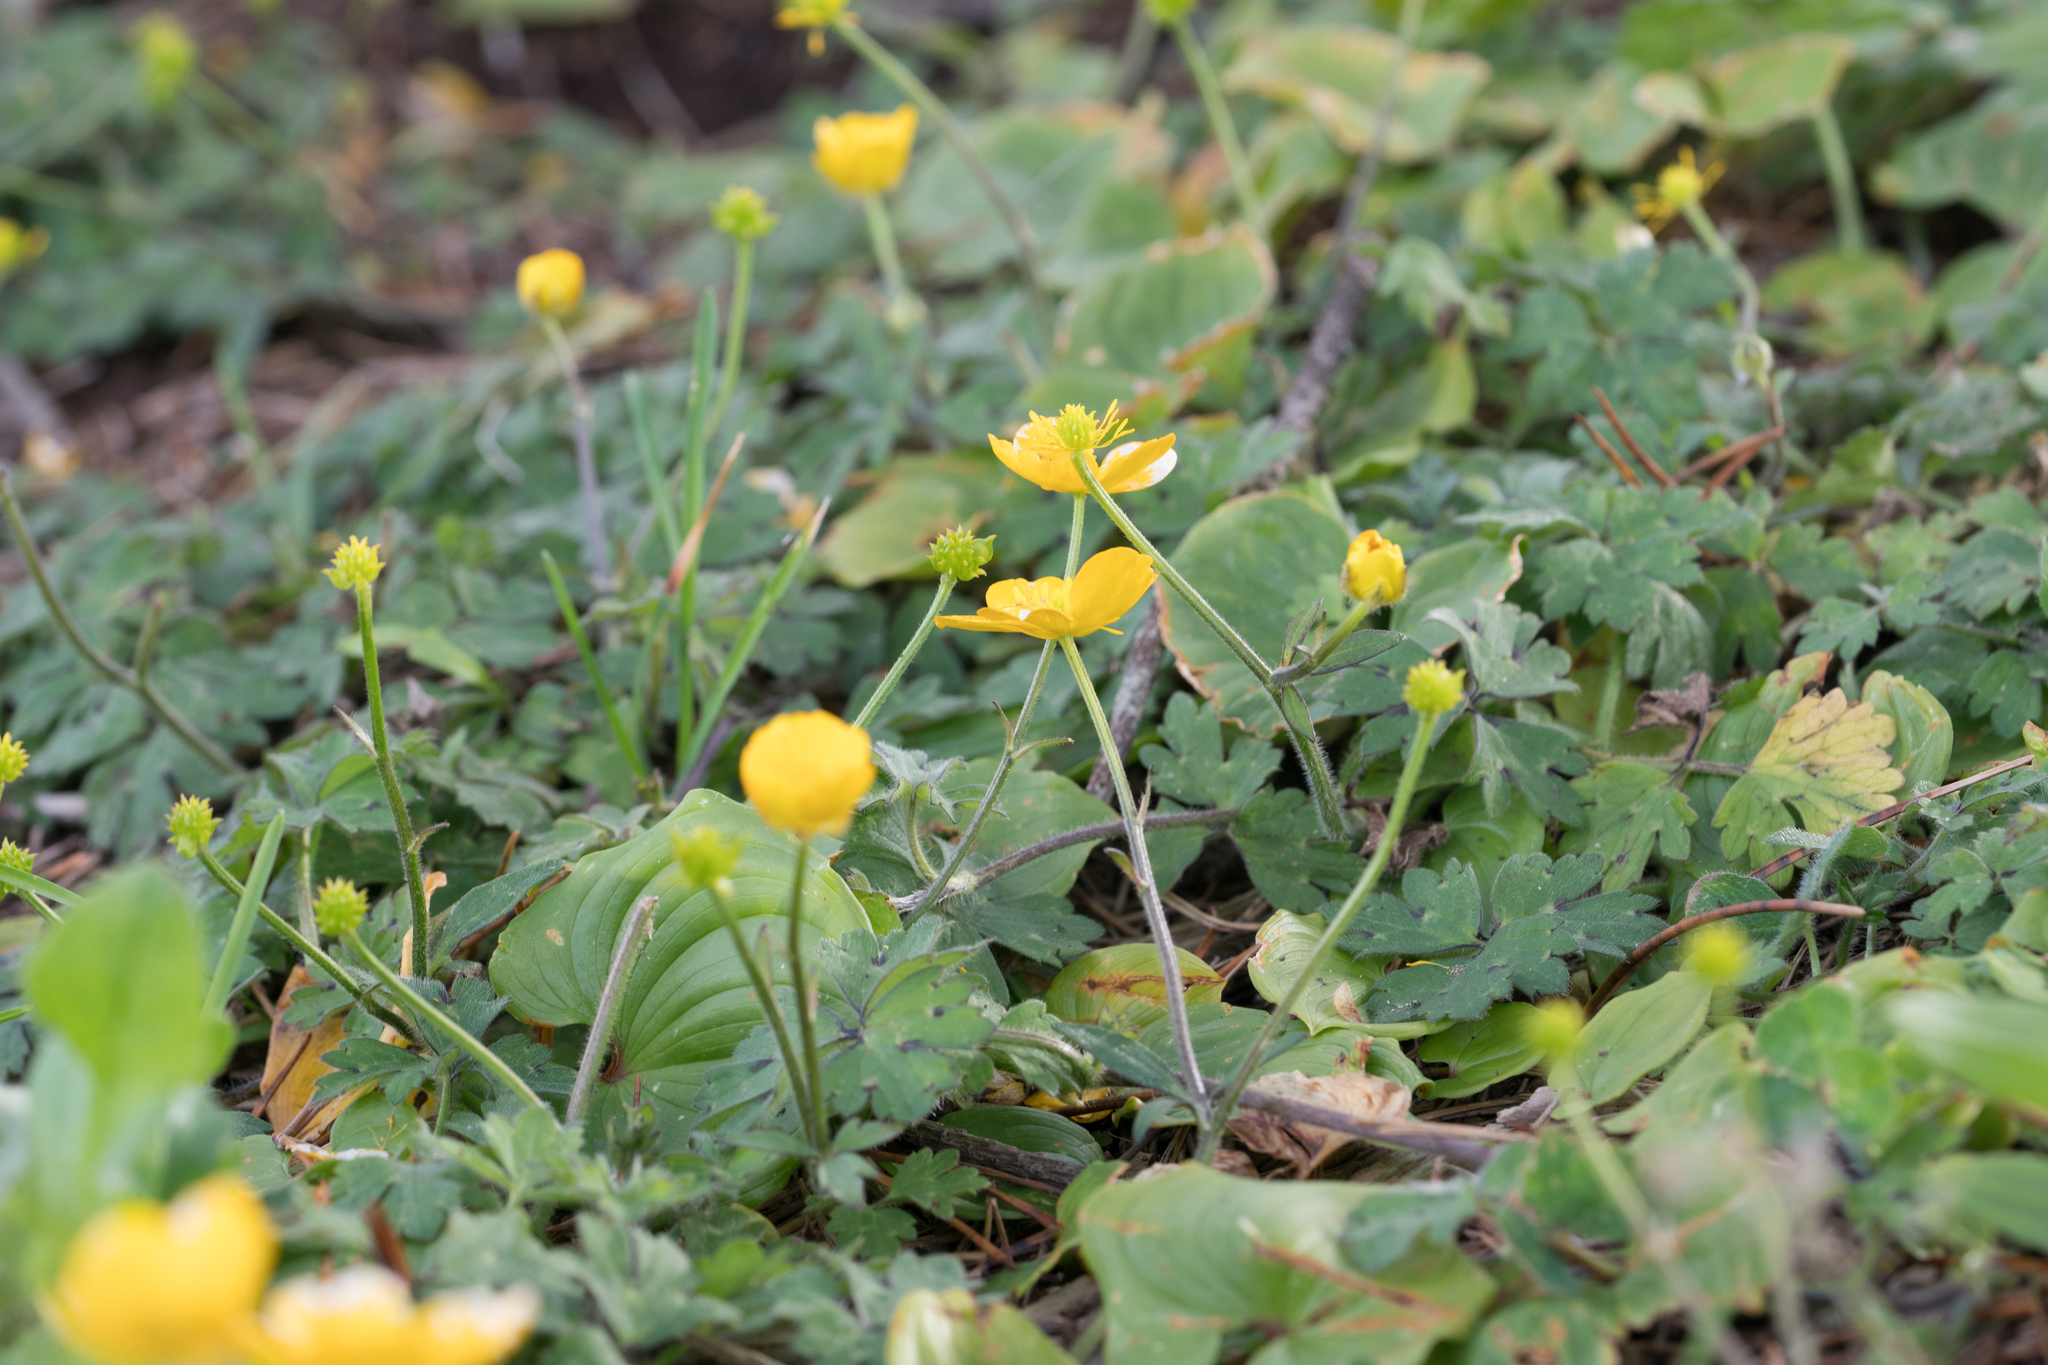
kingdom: Plantae
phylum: Tracheophyta
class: Magnoliopsida
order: Ranunculales
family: Ranunculaceae
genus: Ranunculus
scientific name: Ranunculus repens
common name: Creeping buttercup
